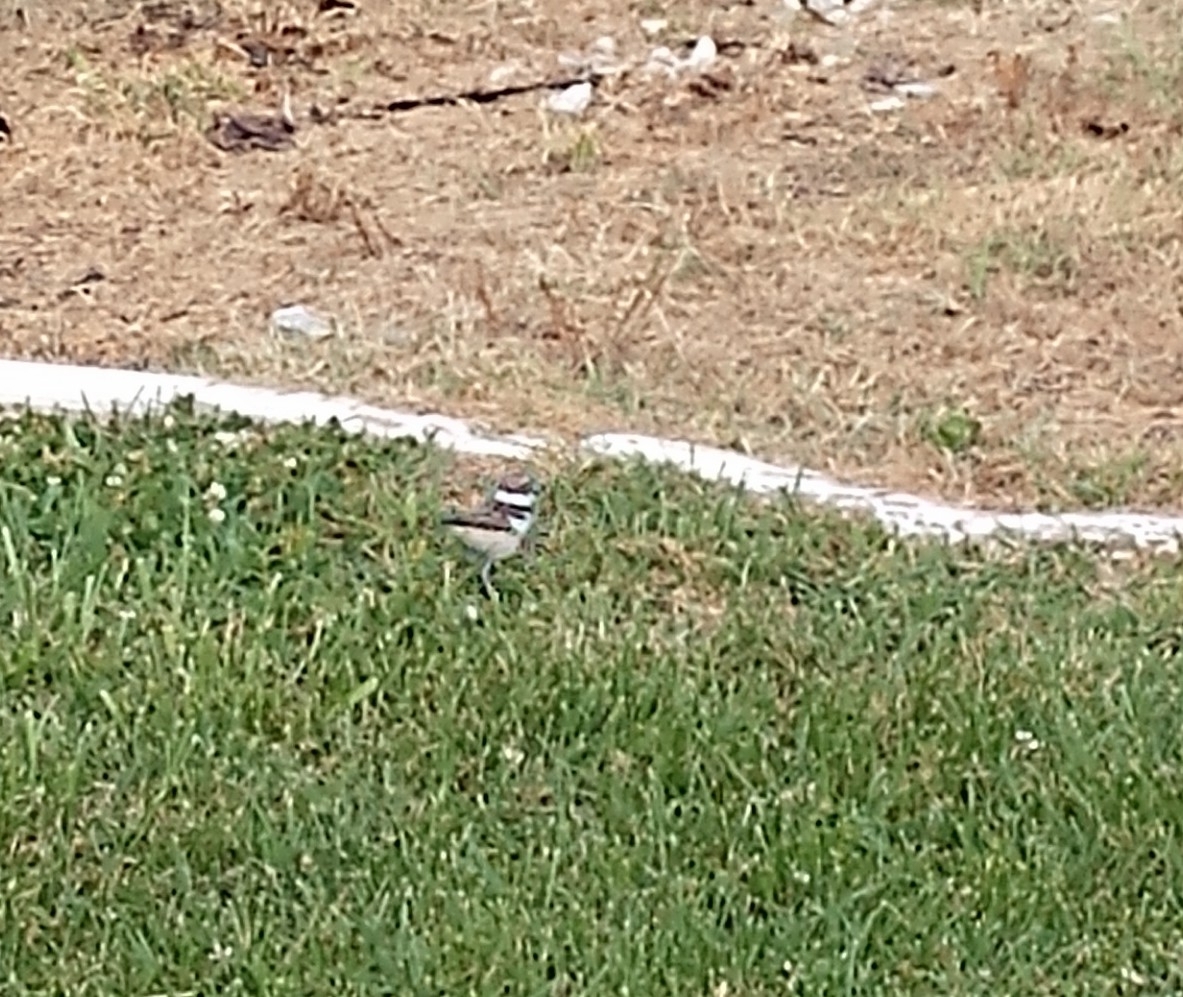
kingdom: Animalia
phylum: Chordata
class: Aves
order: Charadriiformes
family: Charadriidae
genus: Charadrius
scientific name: Charadrius vociferus
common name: Killdeer
